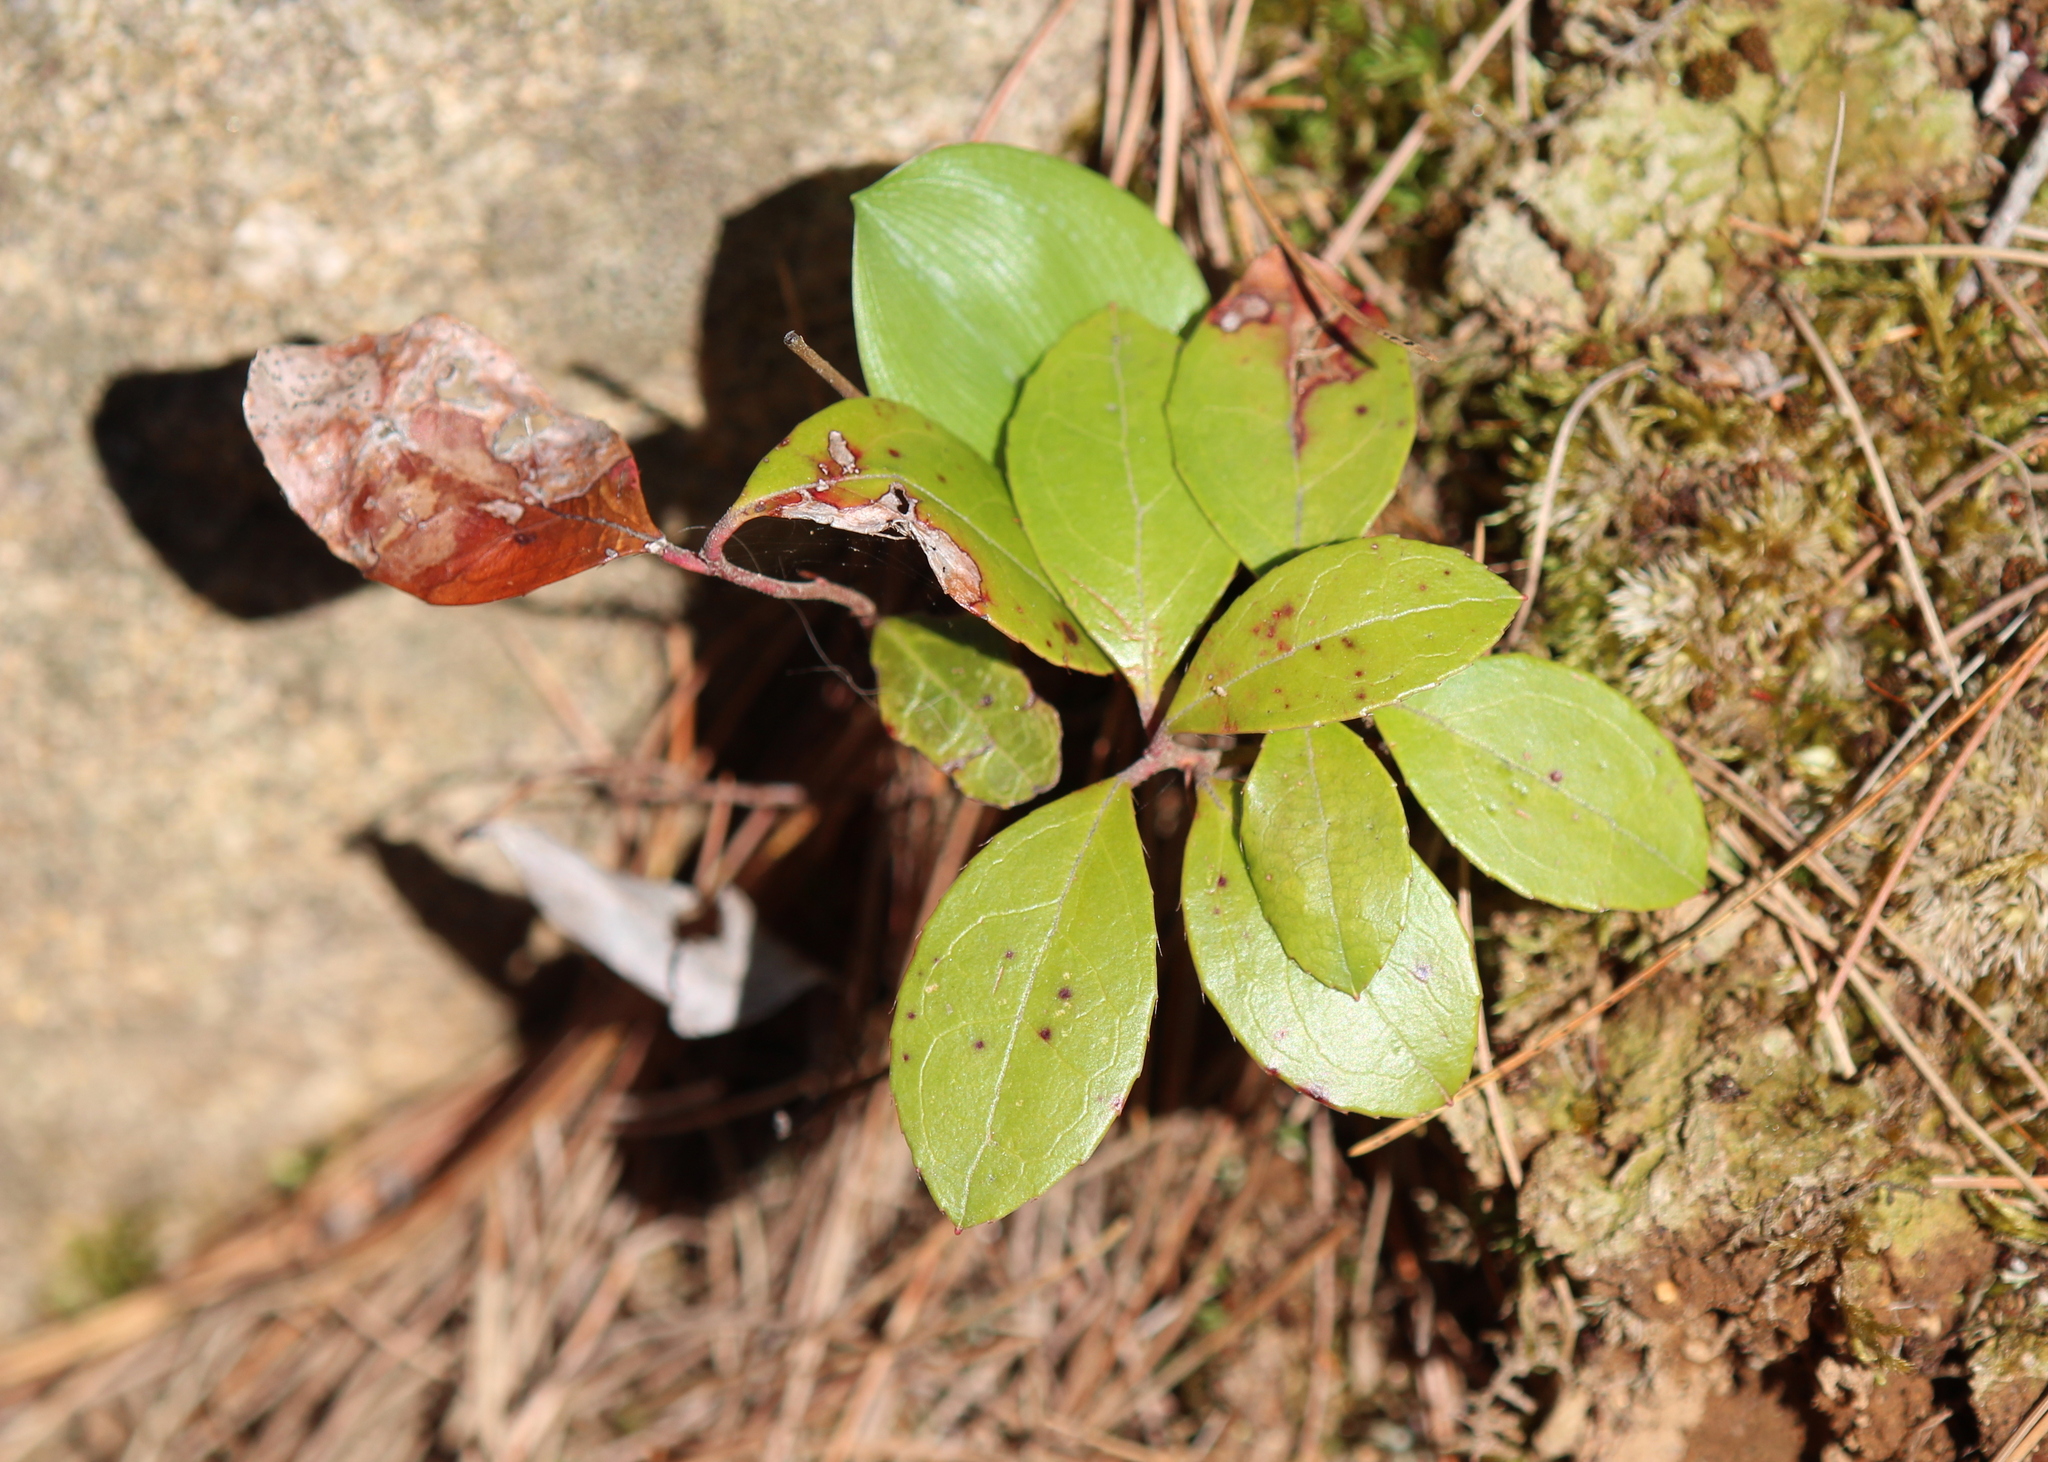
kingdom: Plantae
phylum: Tracheophyta
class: Magnoliopsida
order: Ericales
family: Ericaceae
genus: Gaultheria
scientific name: Gaultheria procumbens
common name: Checkerberry
